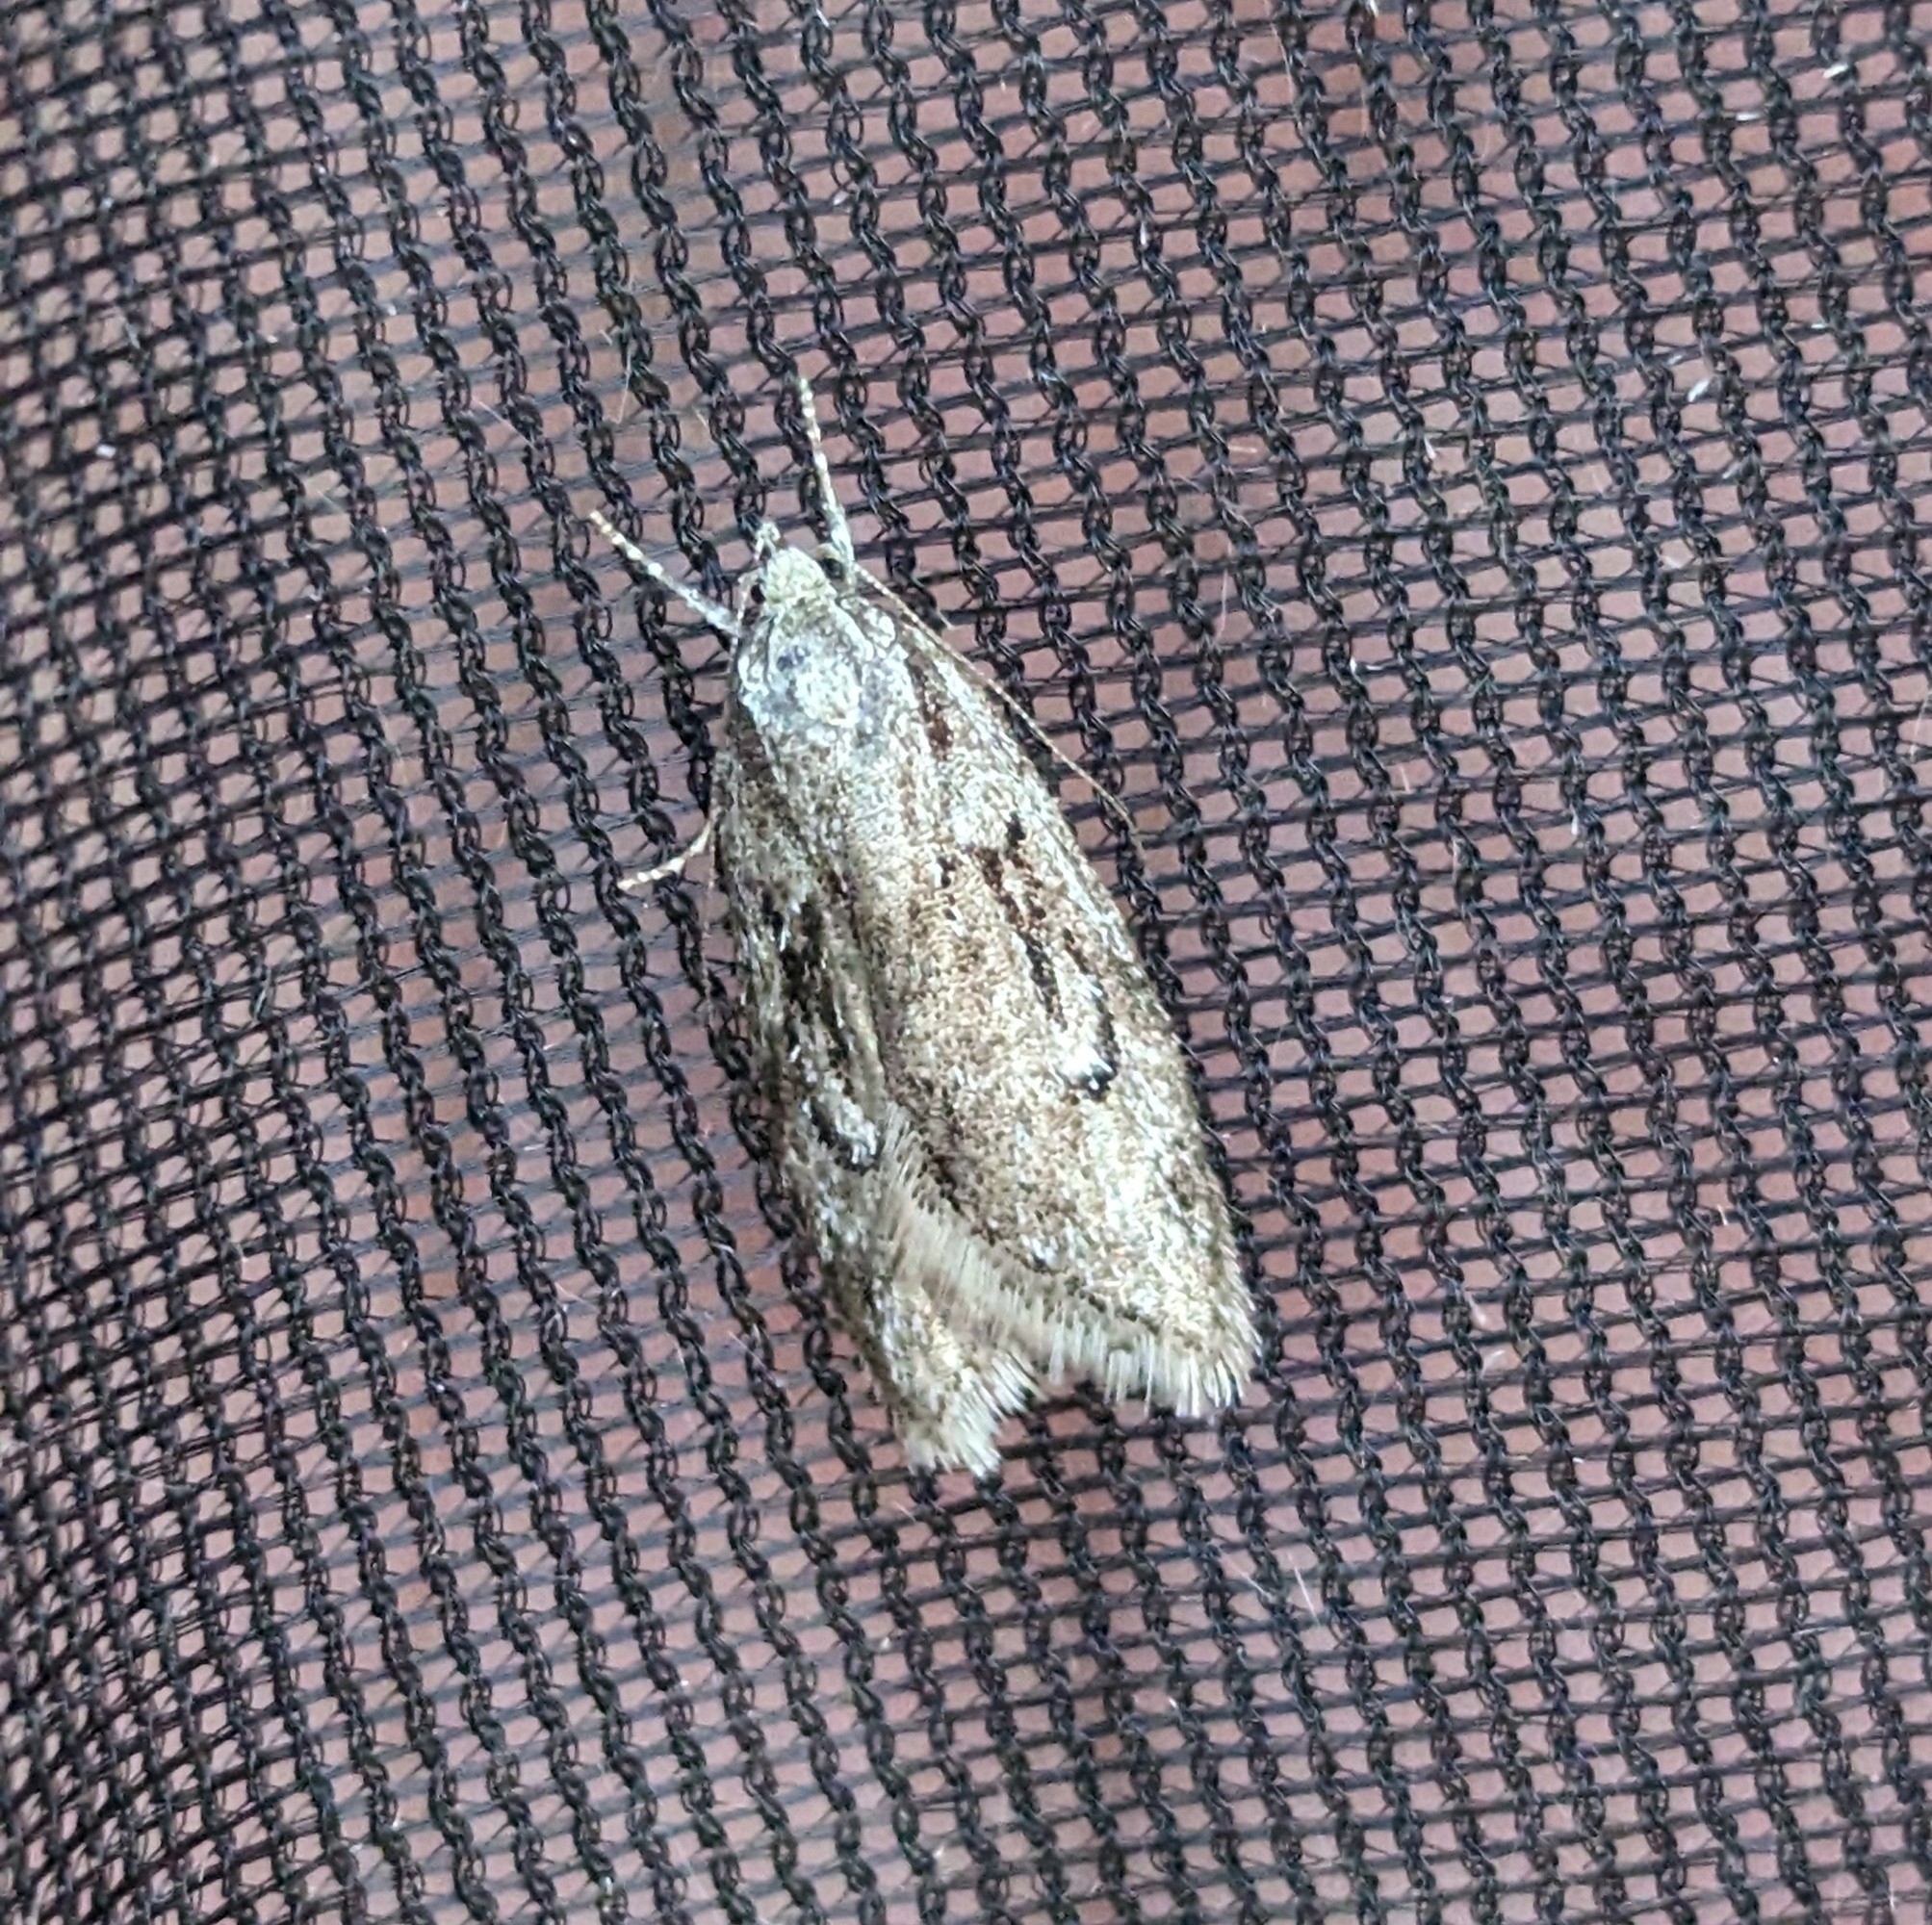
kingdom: Animalia
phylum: Arthropoda
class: Insecta
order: Lepidoptera
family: Depressariidae
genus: Semioscopis
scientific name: Semioscopis aurorella
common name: Aurora flatbody moth
